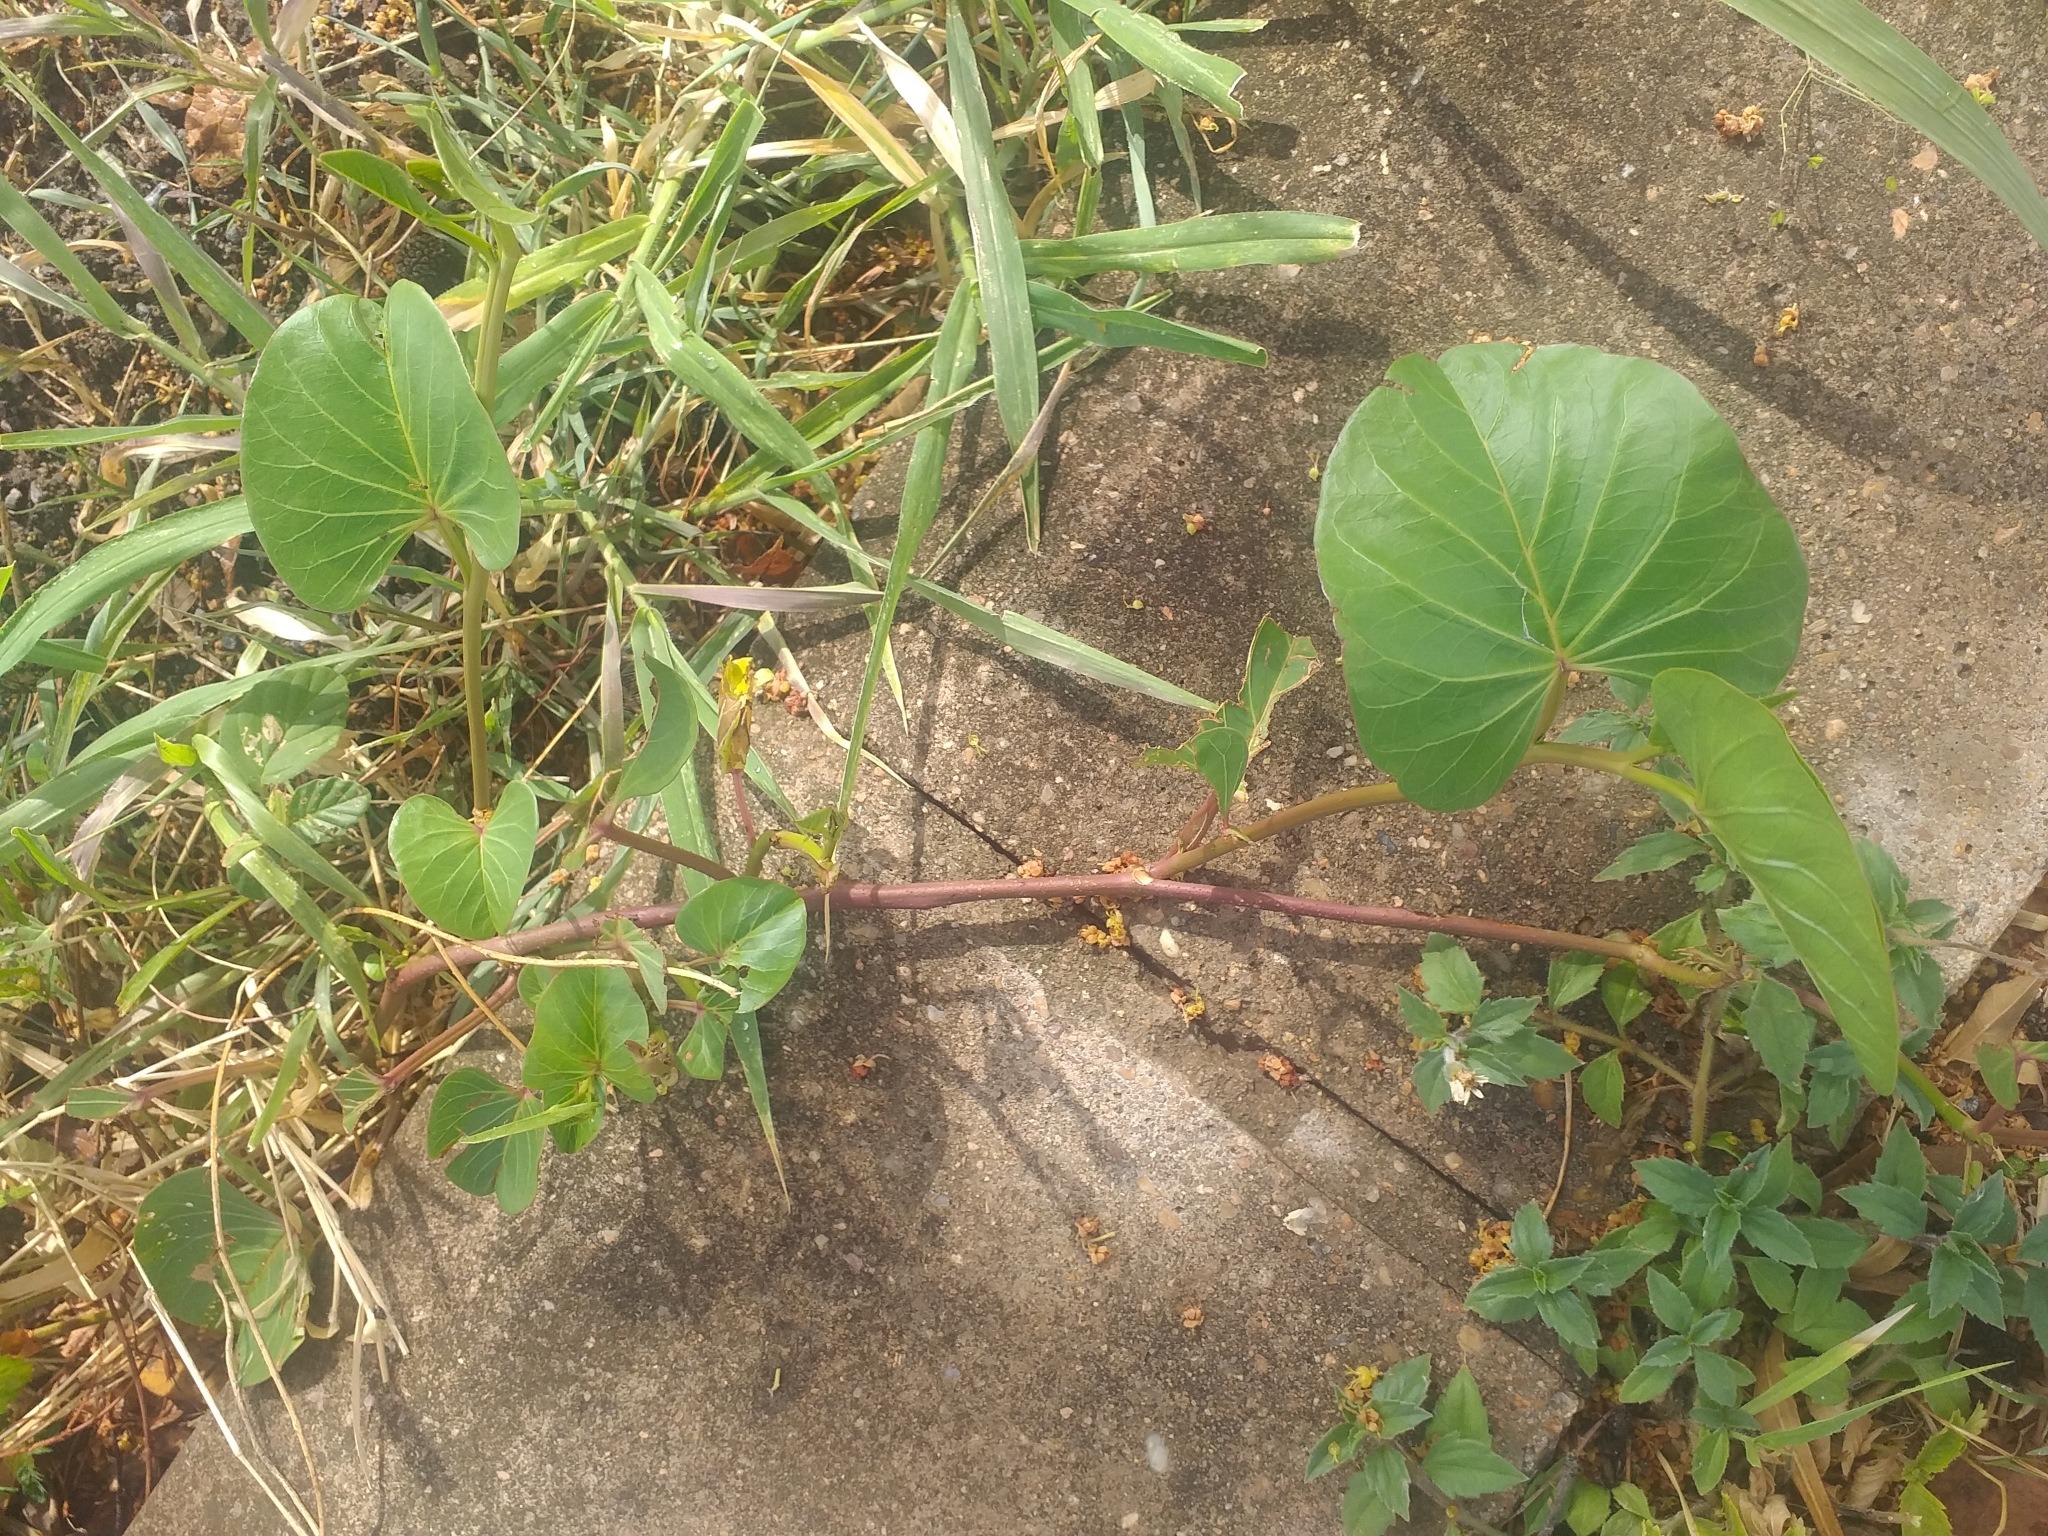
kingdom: Plantae
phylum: Tracheophyta
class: Magnoliopsida
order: Solanales
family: Convolvulaceae
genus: Ipomoea
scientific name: Ipomoea asarifolia
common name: Ginger-leaf morning-glory
